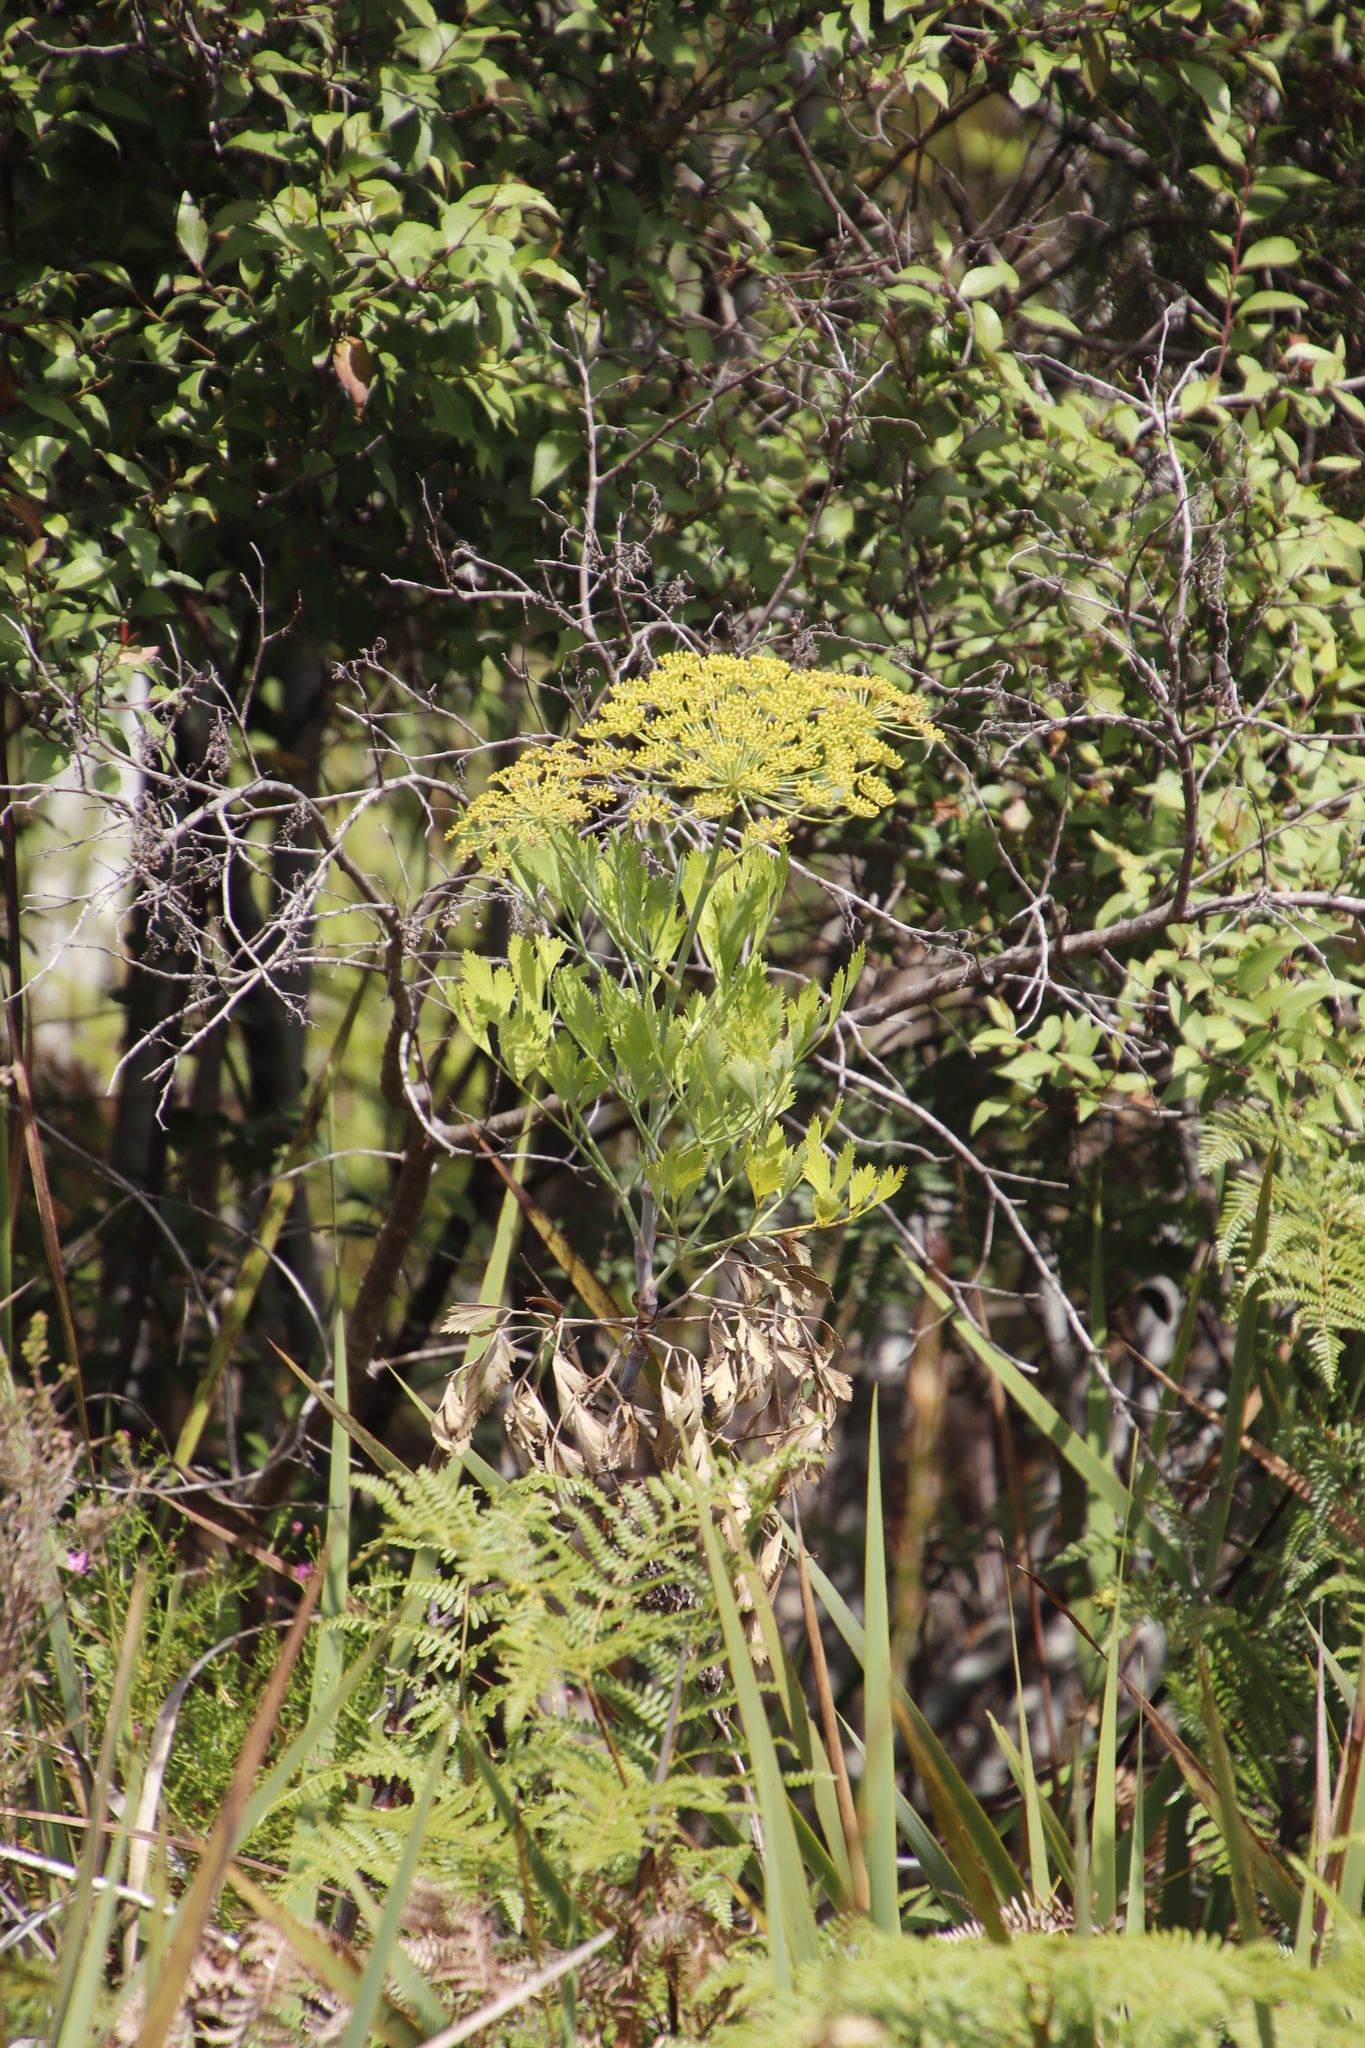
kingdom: Plantae
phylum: Tracheophyta
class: Magnoliopsida
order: Apiales
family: Apiaceae
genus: Notobubon
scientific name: Notobubon galbanum
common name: Blisterbush
